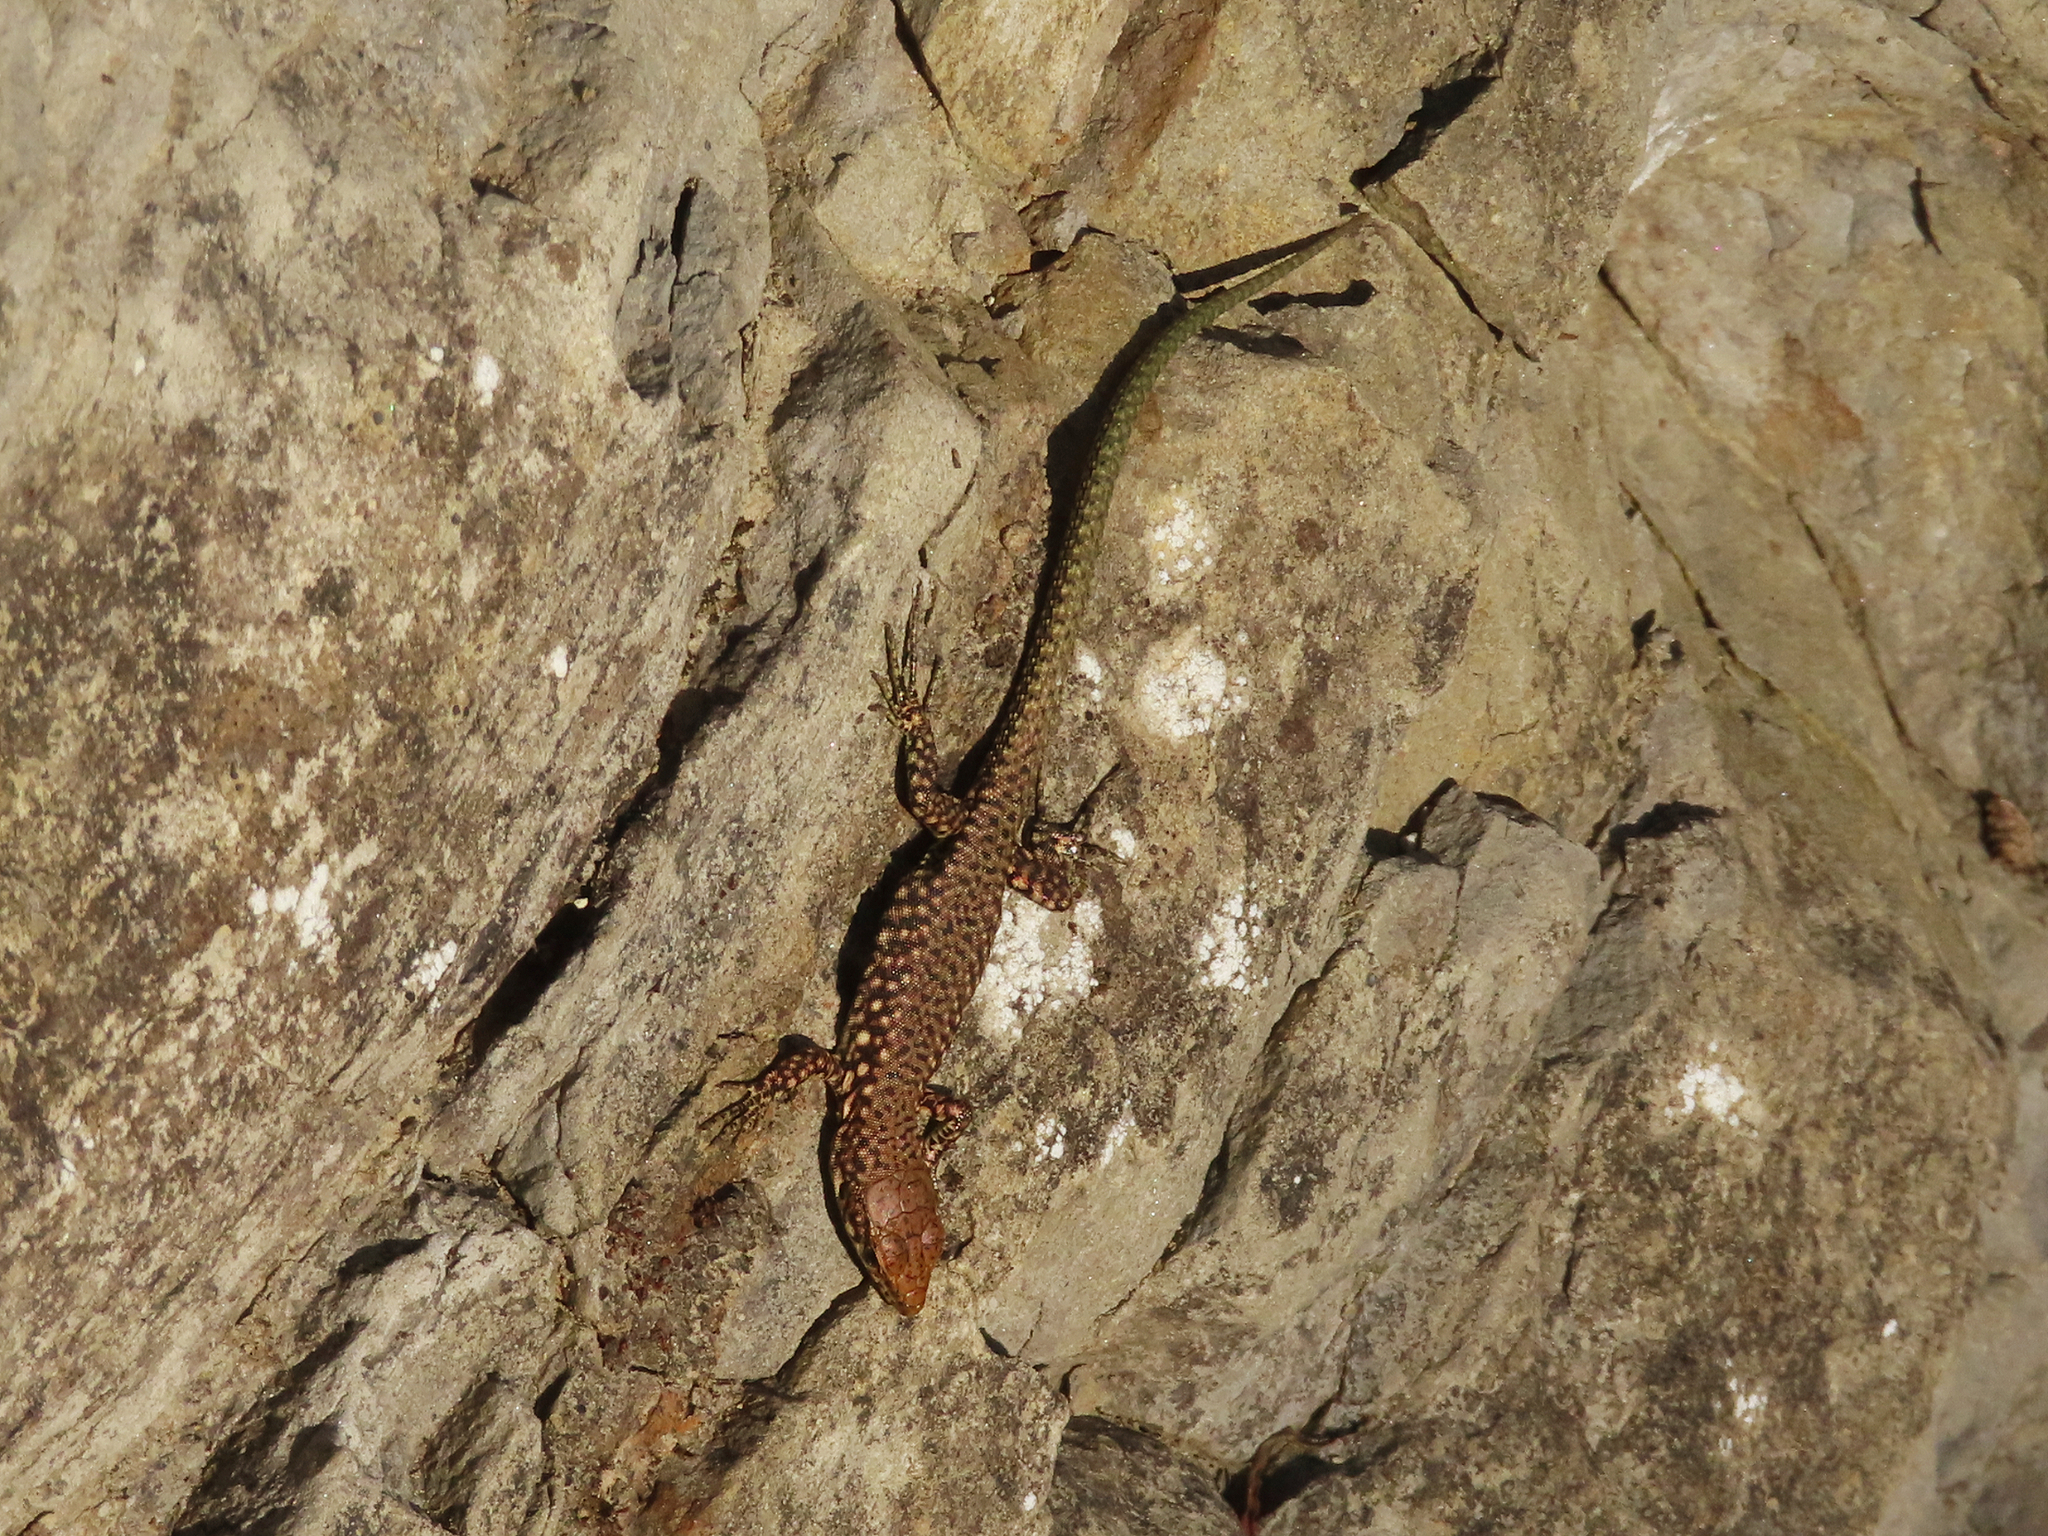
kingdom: Animalia
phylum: Chordata
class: Squamata
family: Lacertidae
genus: Darevskia
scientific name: Darevskia bithynica
